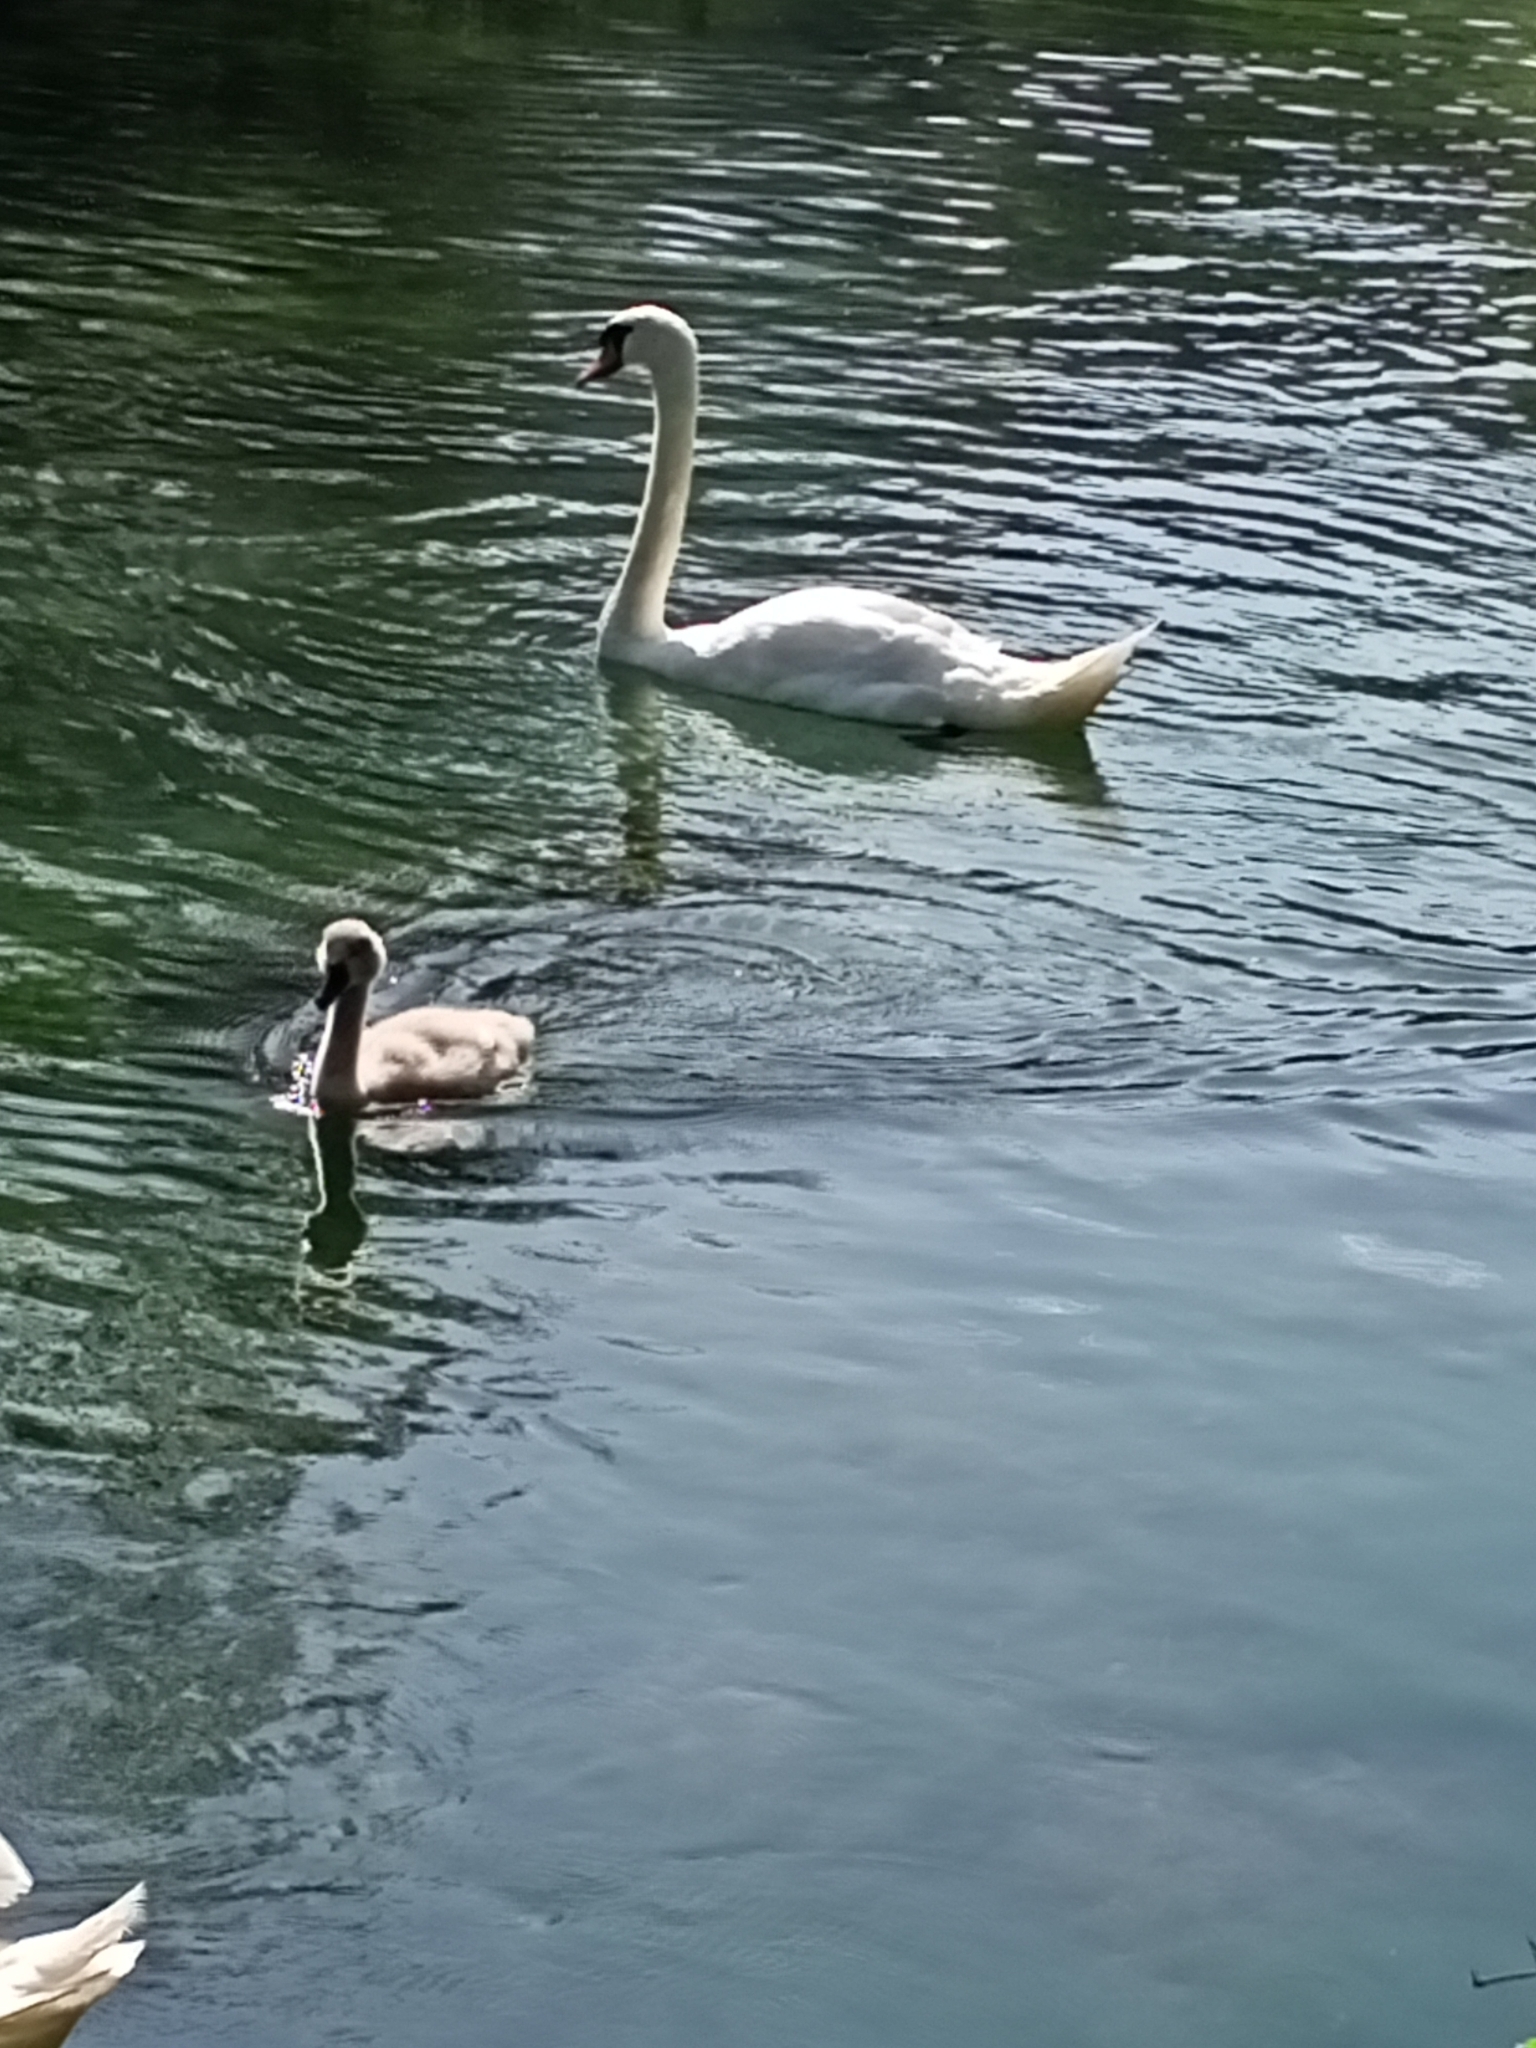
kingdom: Animalia
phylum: Chordata
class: Aves
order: Anseriformes
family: Anatidae
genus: Cygnus
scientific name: Cygnus olor
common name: Mute swan
